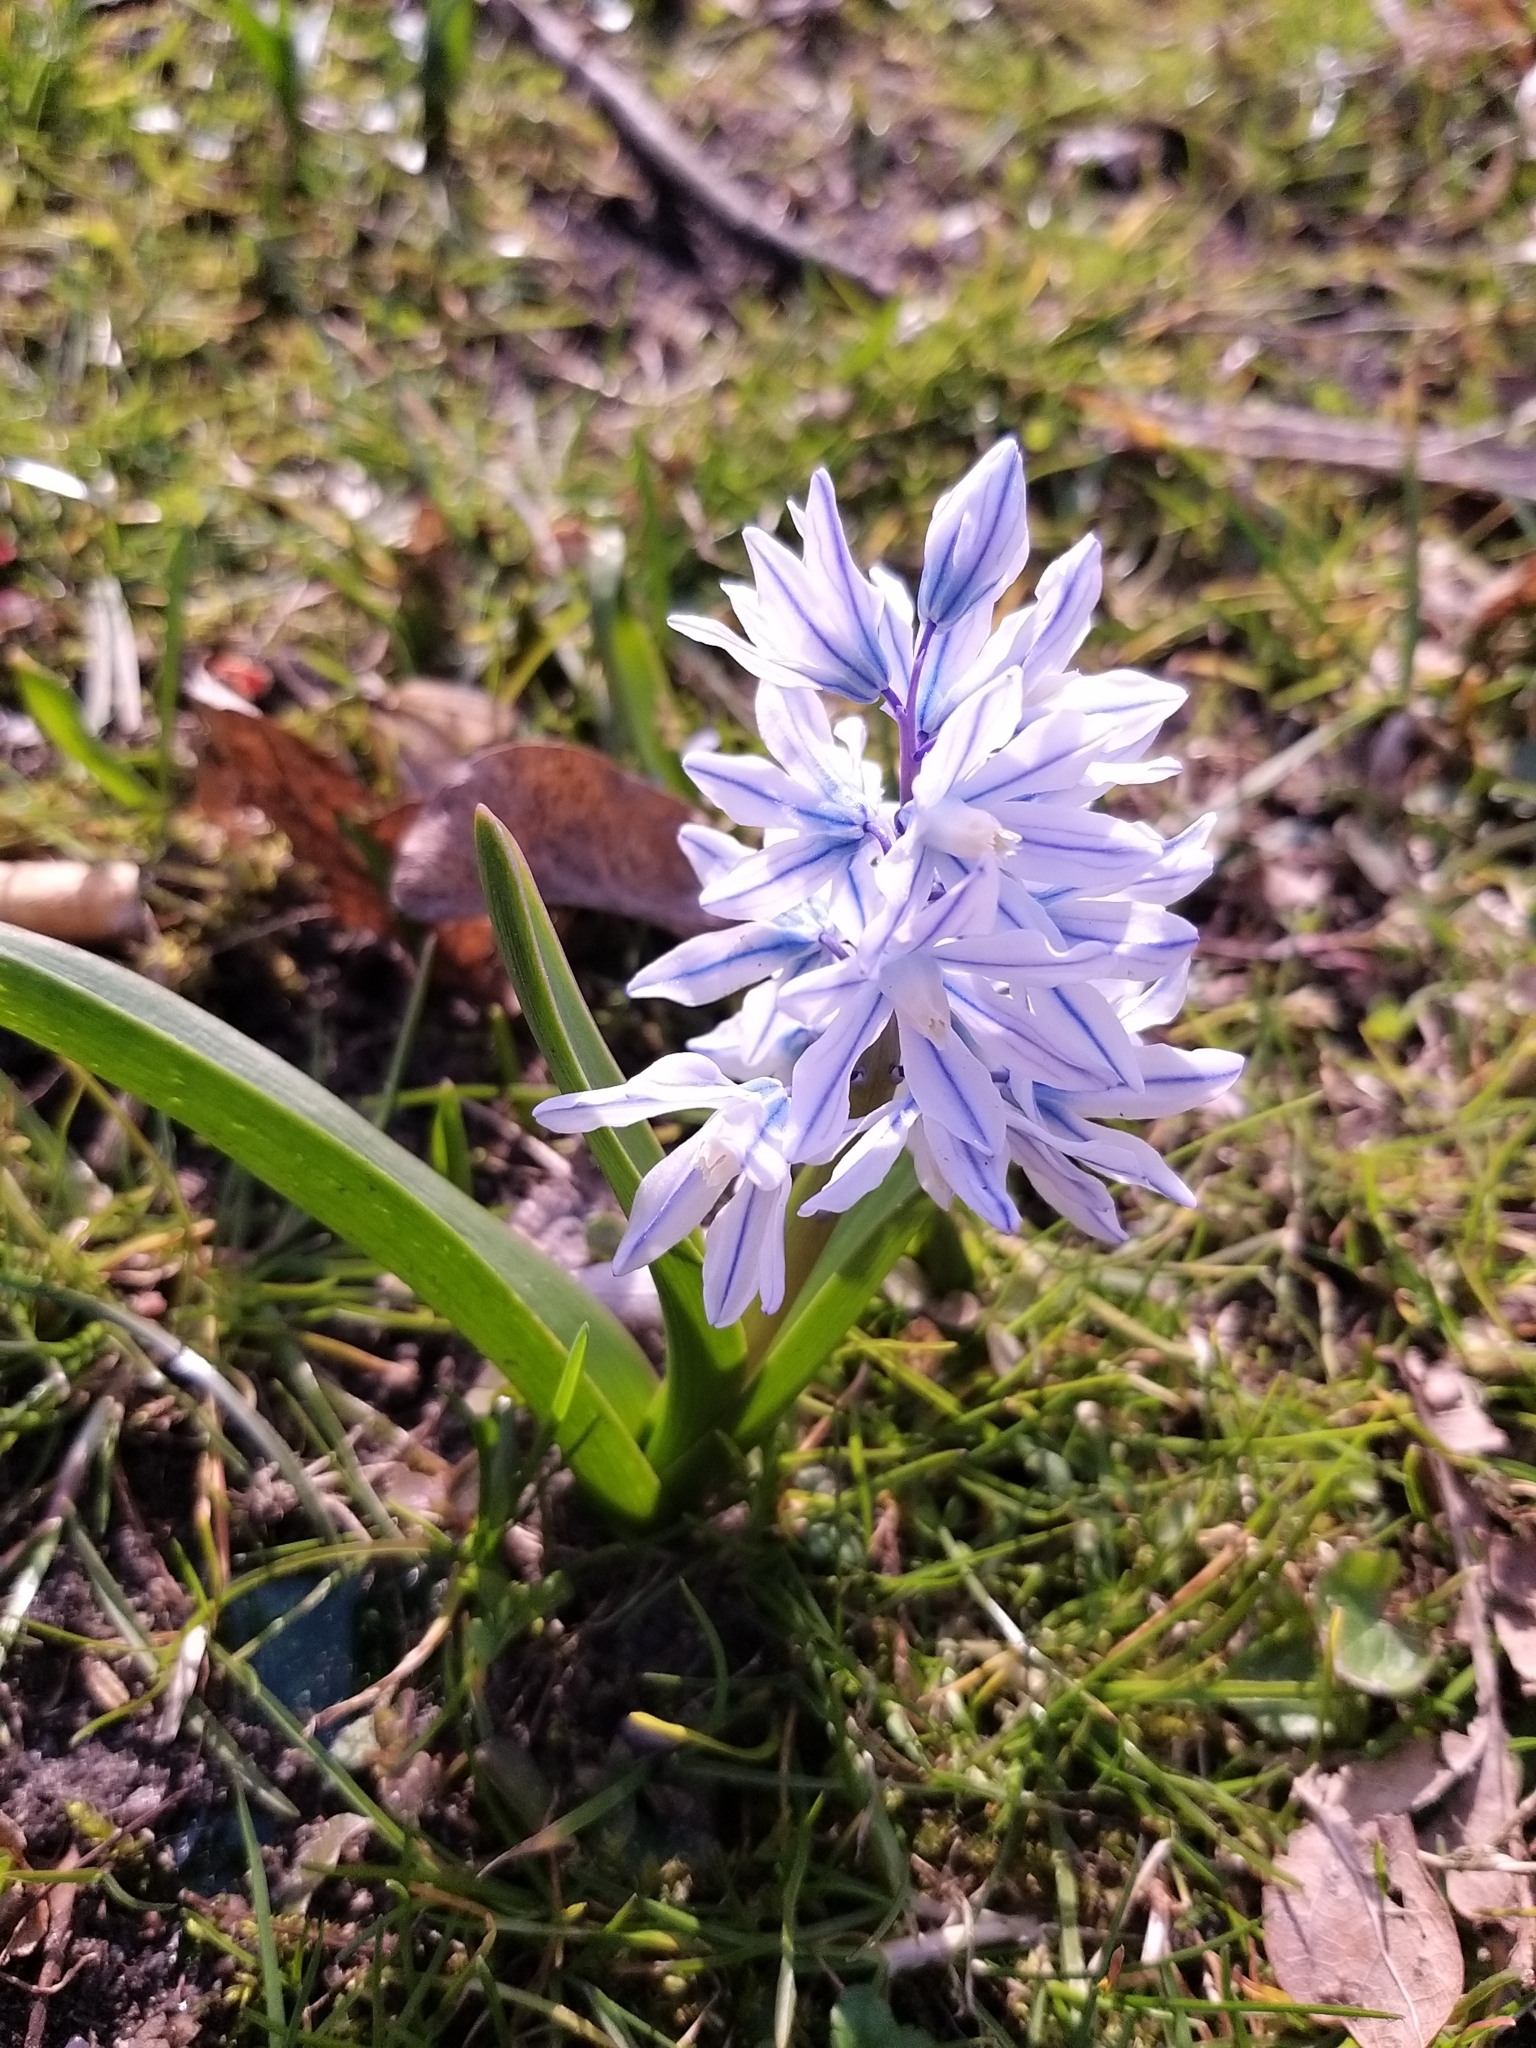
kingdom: Plantae
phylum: Tracheophyta
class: Liliopsida
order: Asparagales
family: Asparagaceae
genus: Puschkinia
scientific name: Puschkinia scilloides
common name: Striped squill
